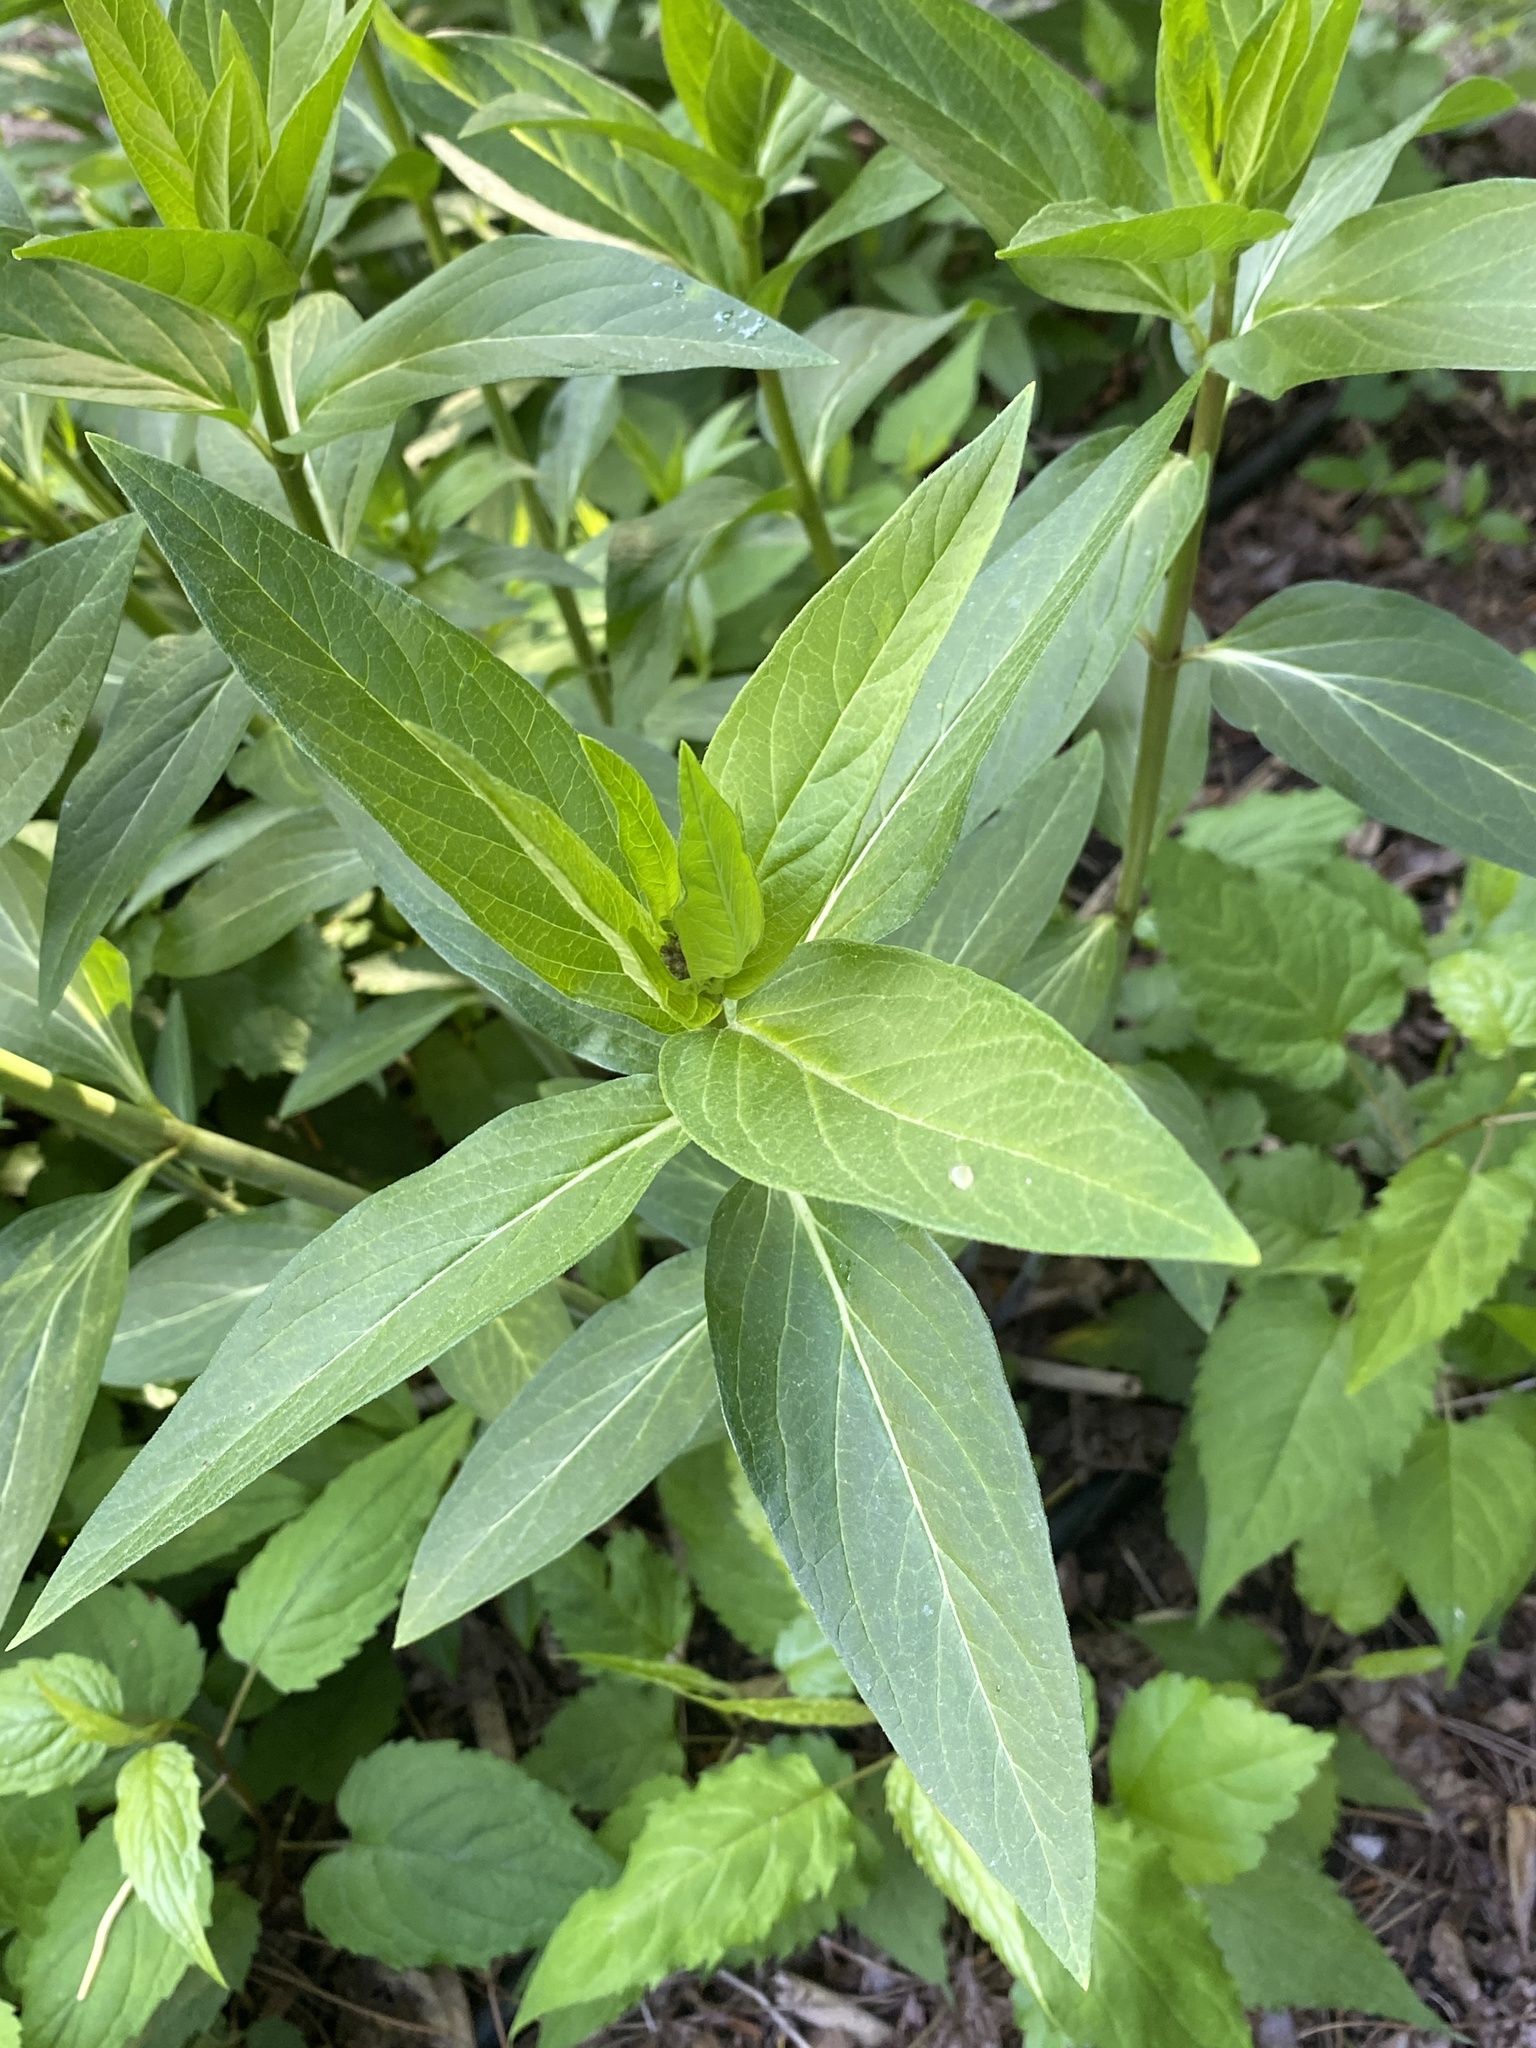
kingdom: Plantae
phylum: Tracheophyta
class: Magnoliopsida
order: Gentianales
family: Apocynaceae
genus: Asclepias
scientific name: Asclepias incarnata
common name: Swamp milkweed
